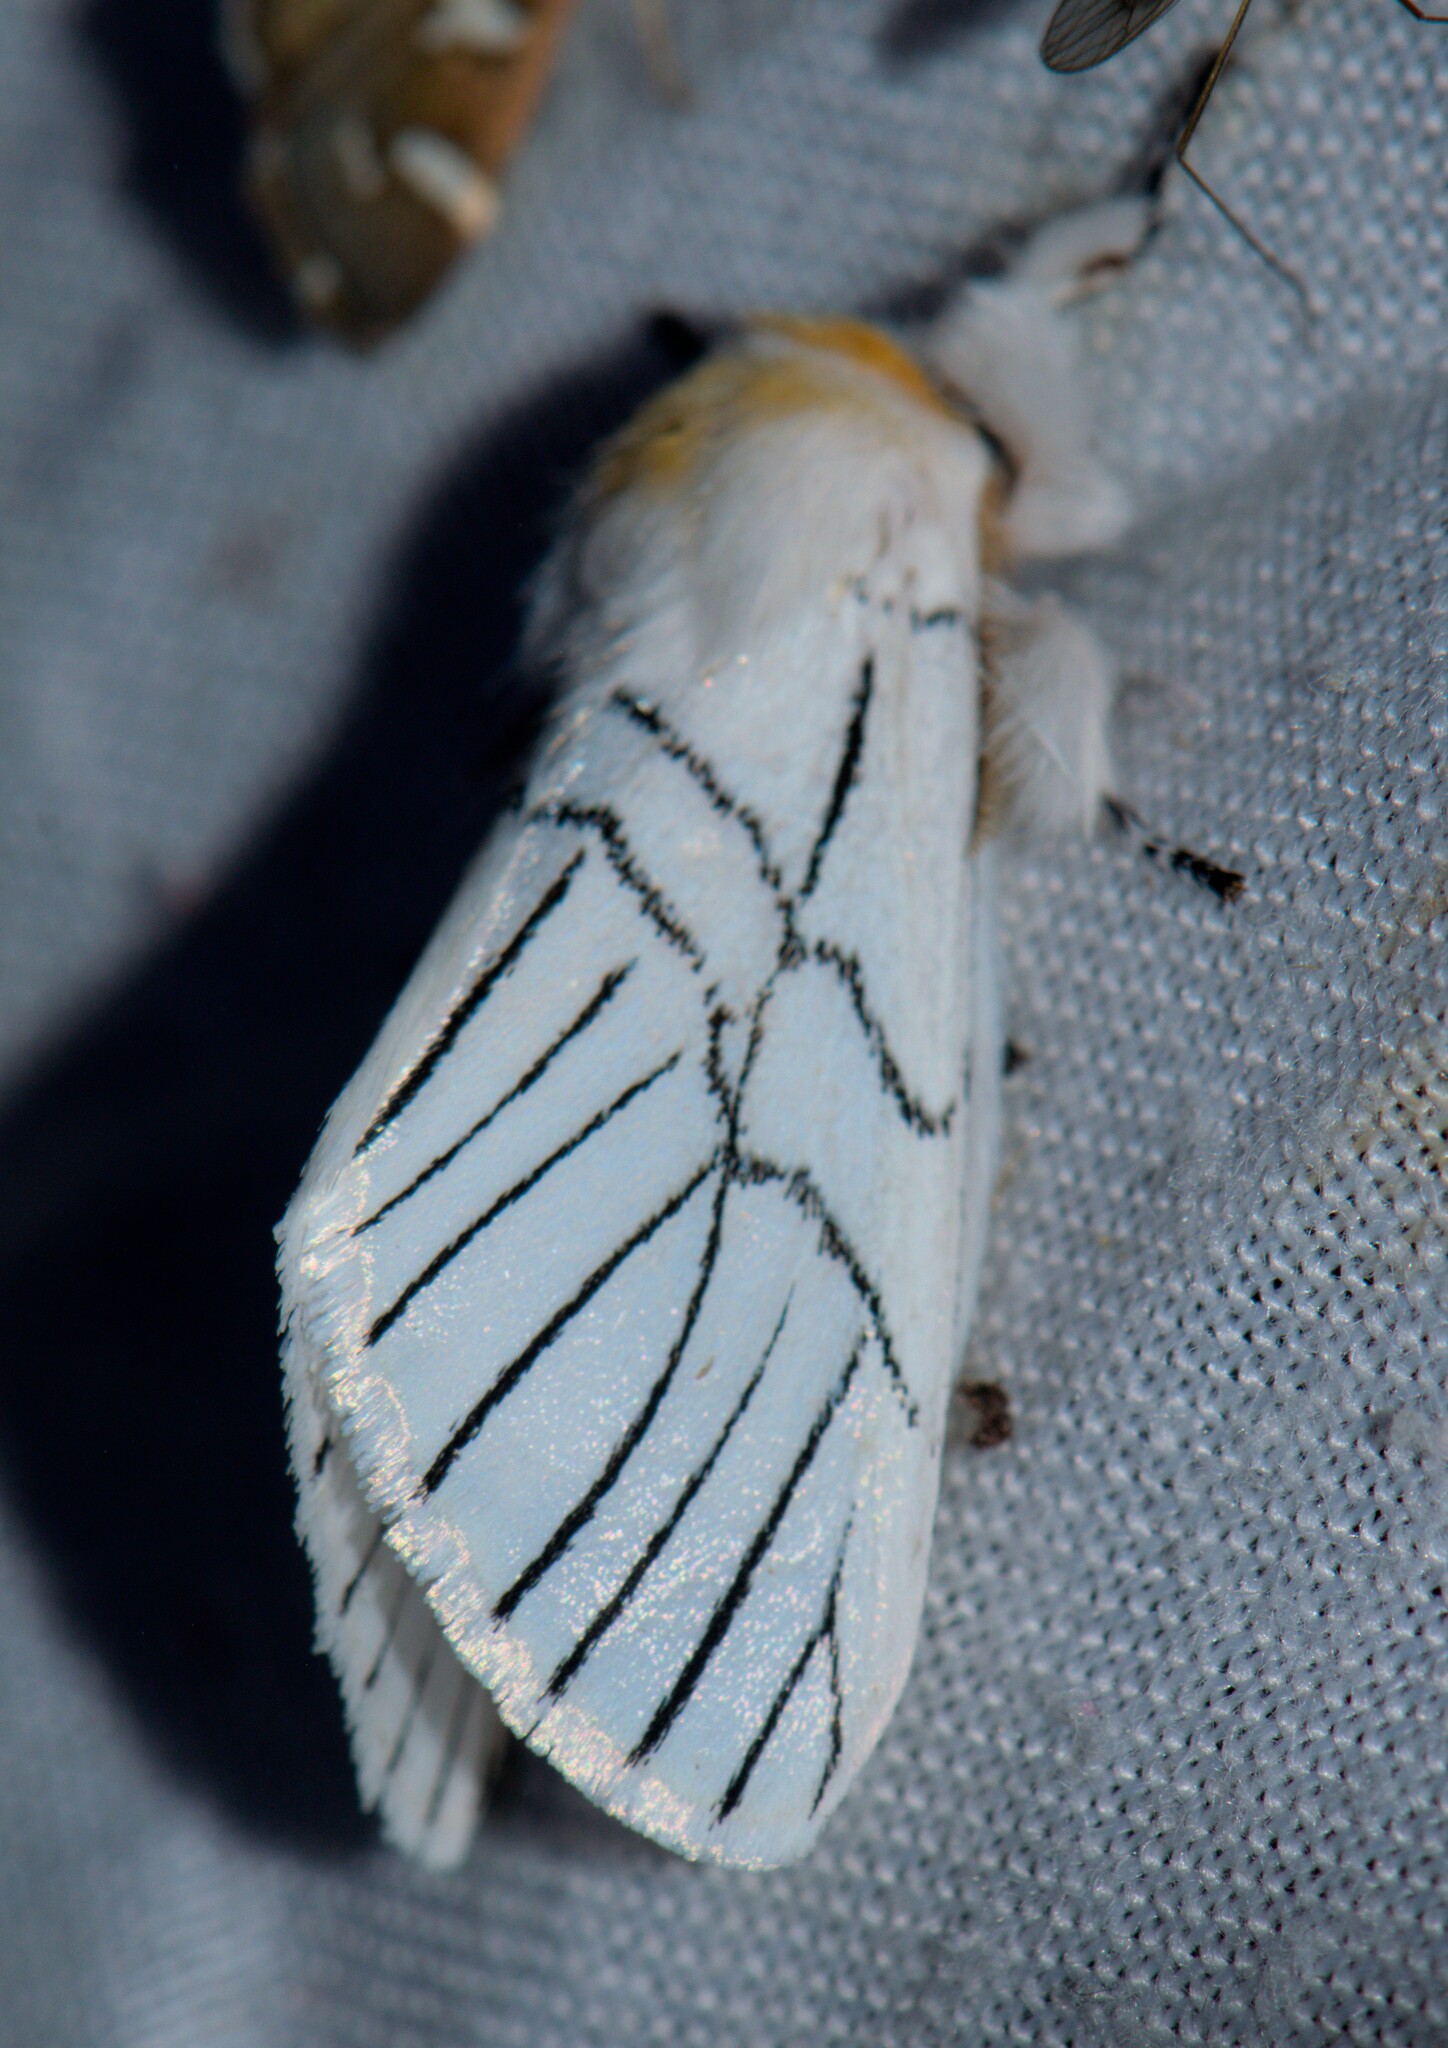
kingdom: Animalia
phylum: Arthropoda
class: Insecta
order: Lepidoptera
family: Notodontidae
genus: Oligoclona
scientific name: Oligoclona chrysolopha
